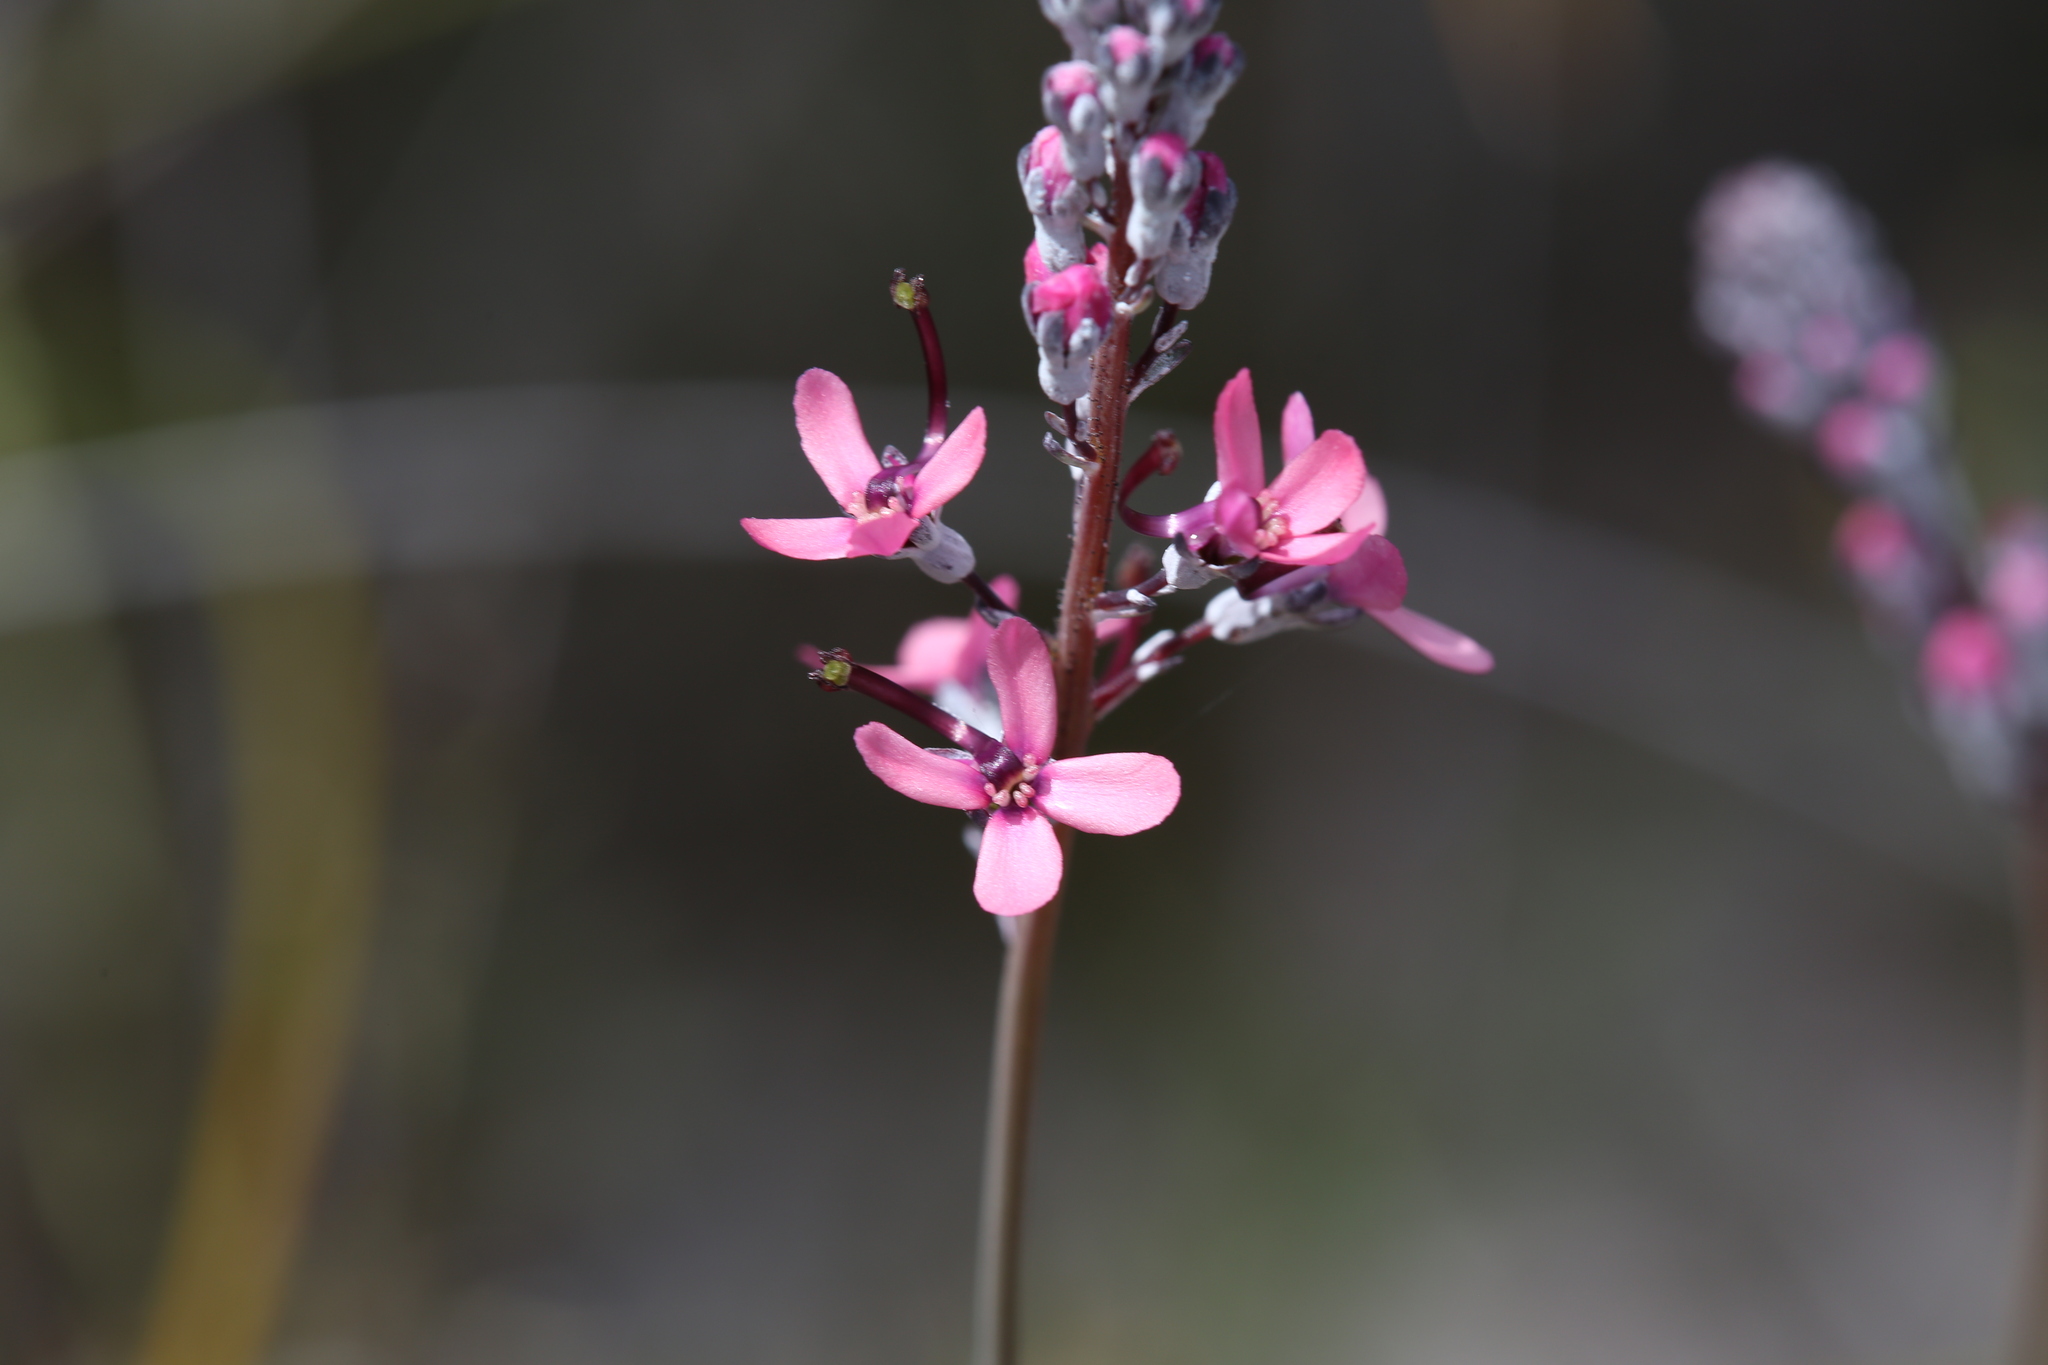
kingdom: Plantae
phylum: Tracheophyta
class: Magnoliopsida
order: Asterales
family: Stylidiaceae
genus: Stylidium
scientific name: Stylidium brunonianum
